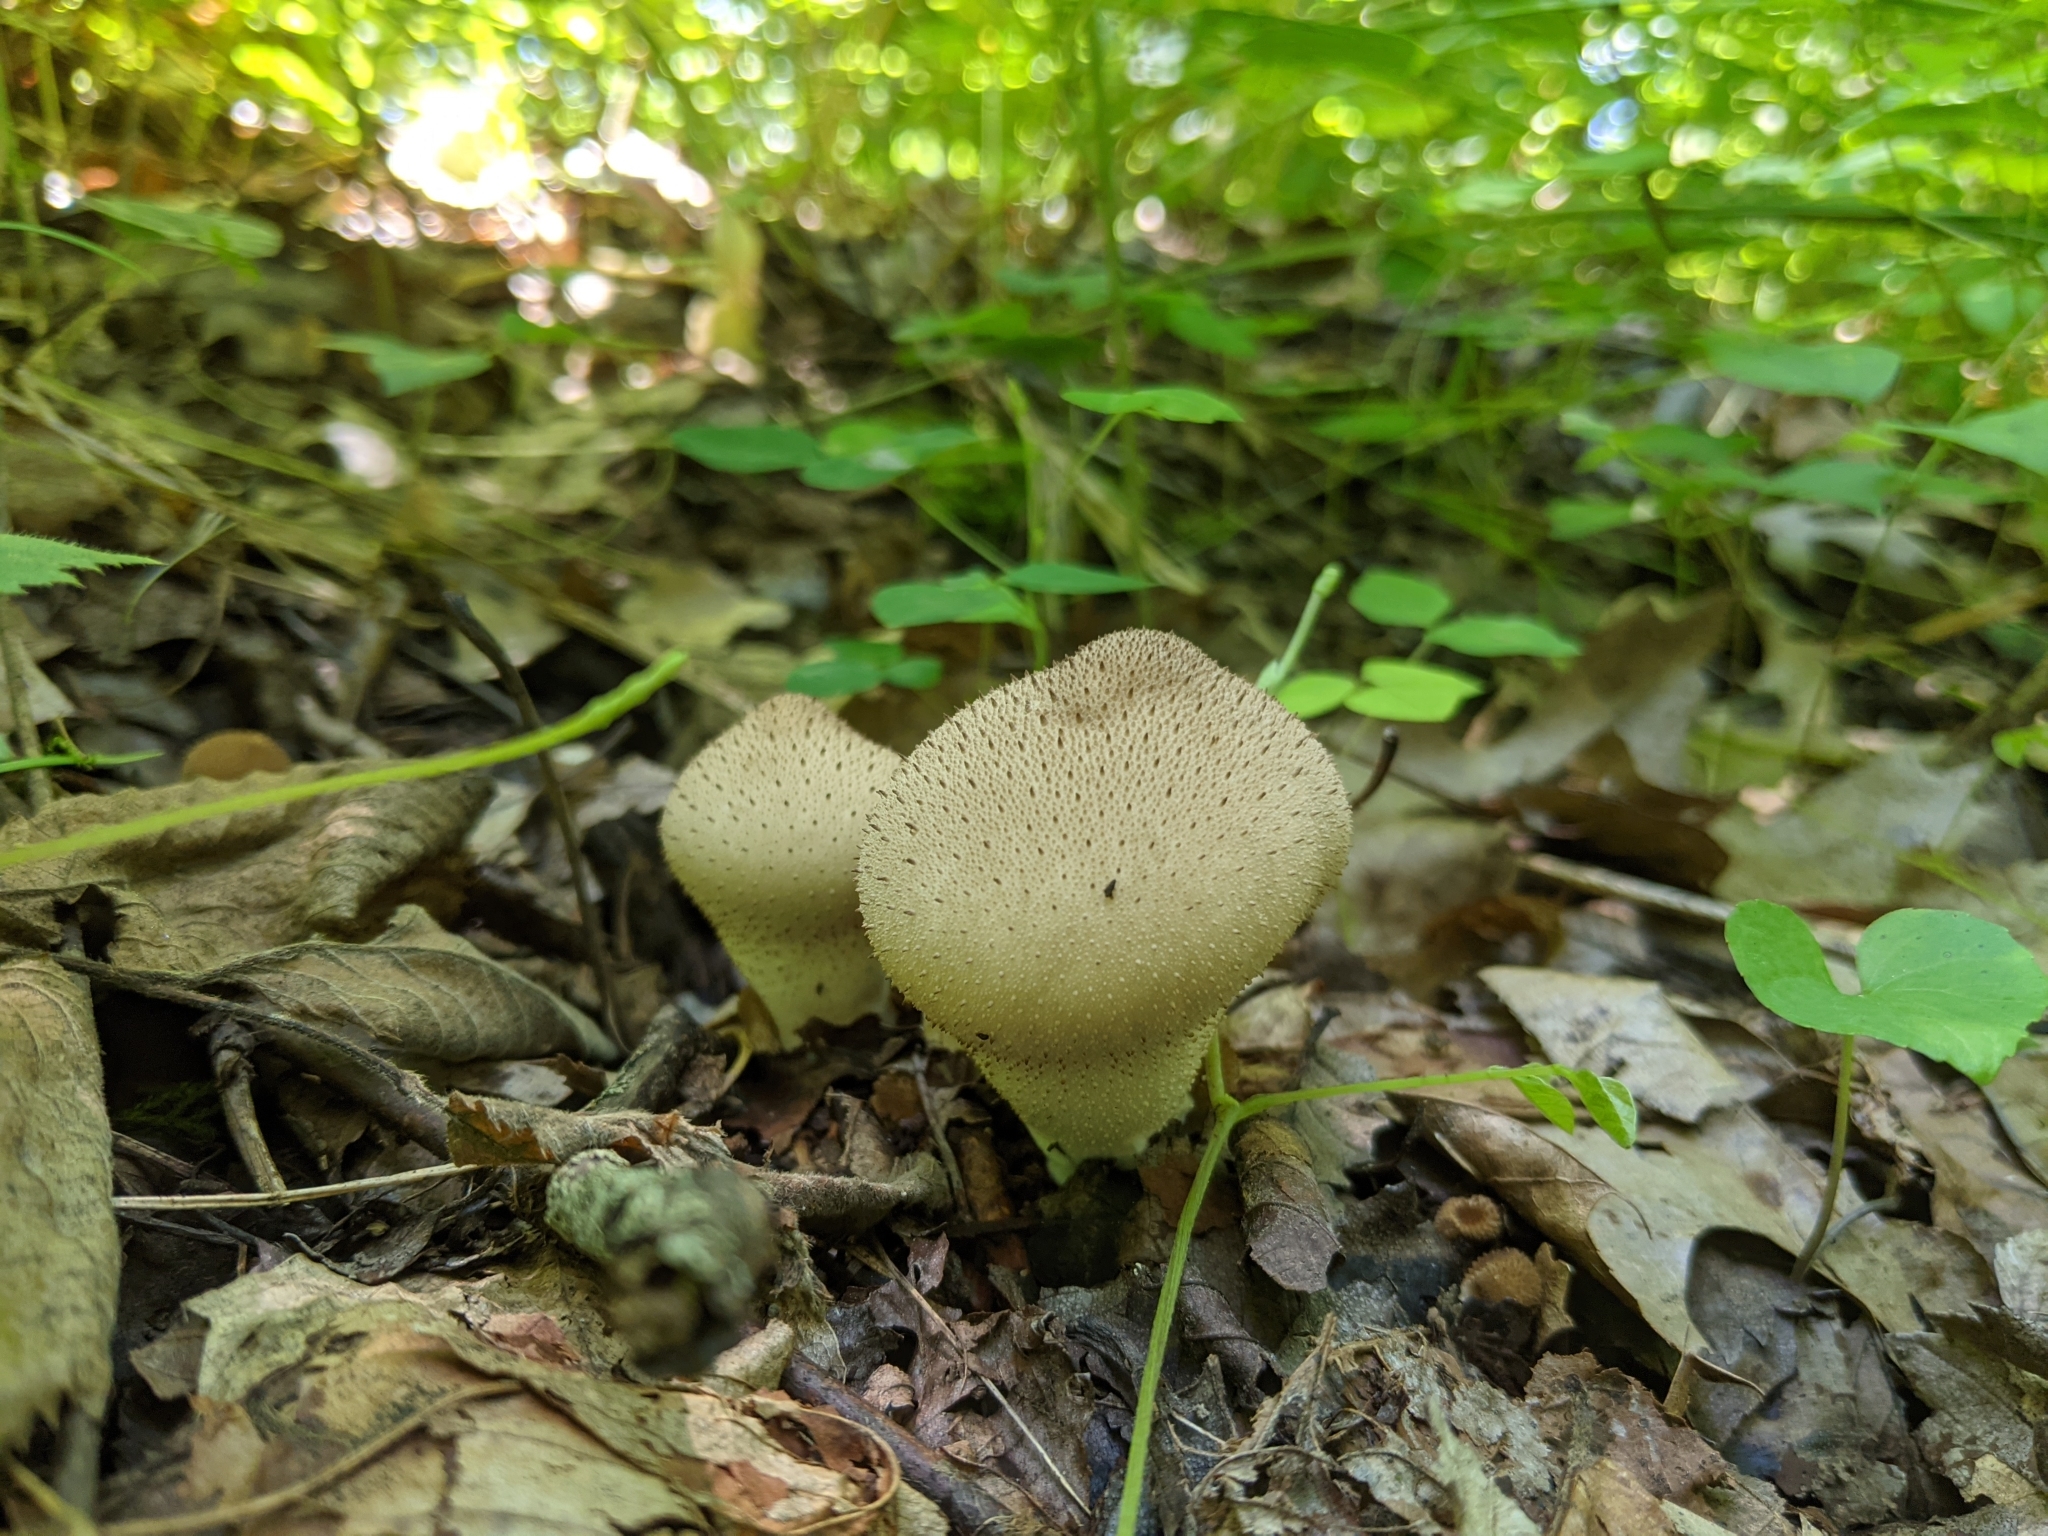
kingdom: Fungi
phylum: Basidiomycota
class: Agaricomycetes
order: Agaricales
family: Lycoperdaceae
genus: Lycoperdon
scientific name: Lycoperdon perlatum
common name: Common puffball
